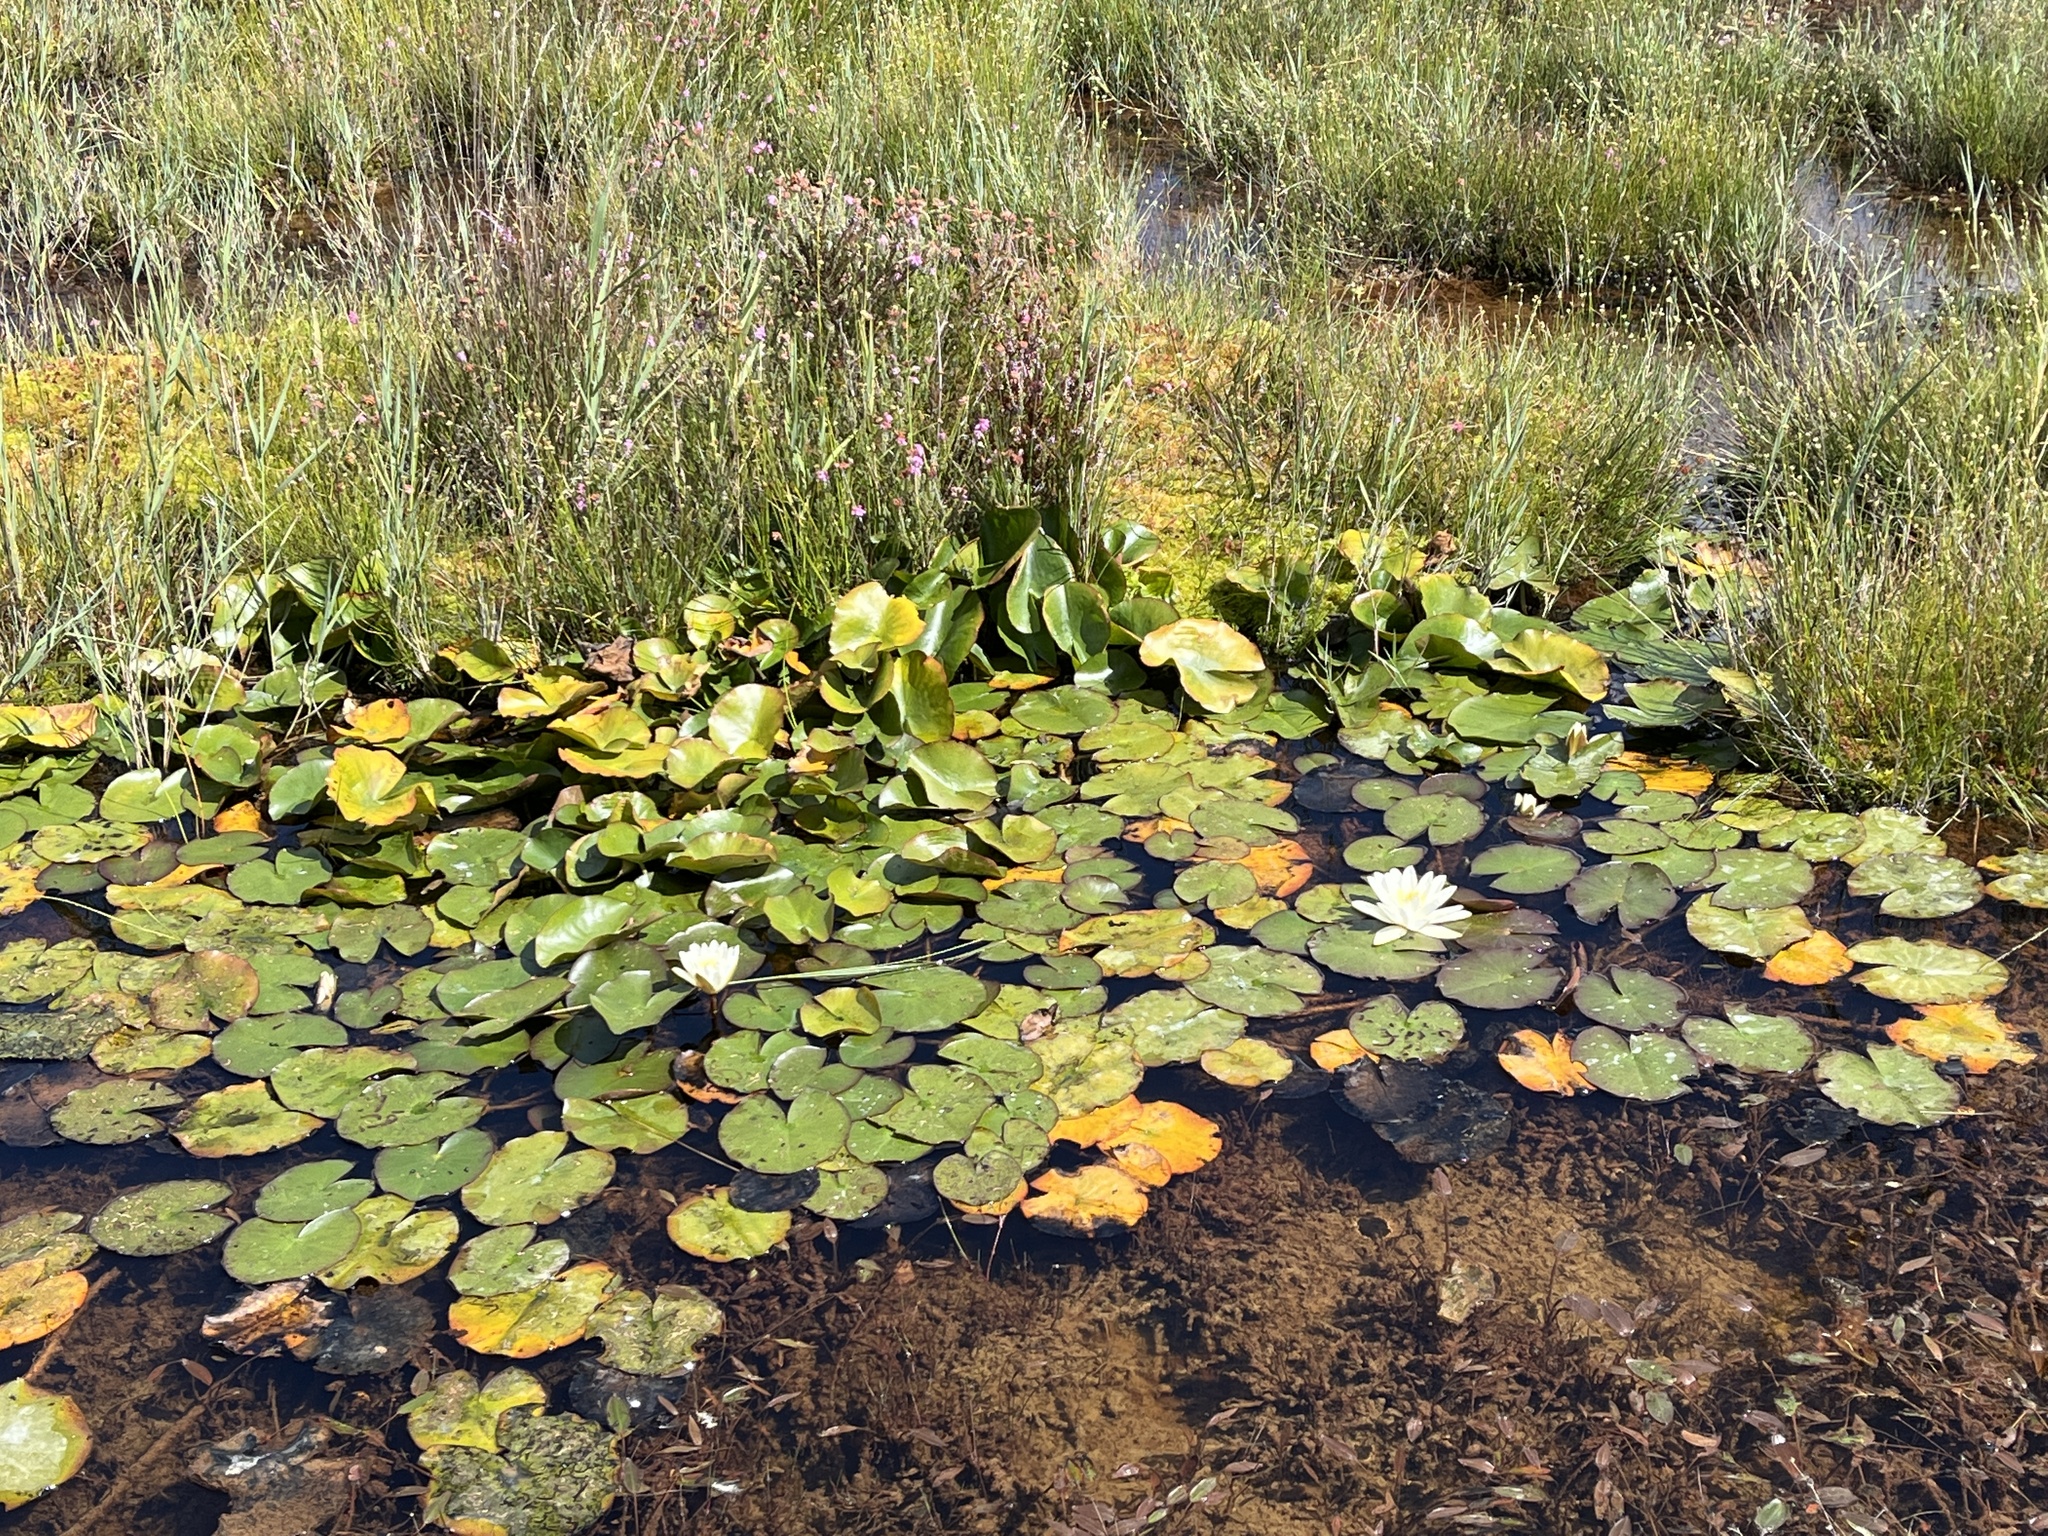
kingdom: Plantae
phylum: Tracheophyta
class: Magnoliopsida
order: Nymphaeales
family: Nymphaeaceae
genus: Nymphaea
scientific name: Nymphaea alba
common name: White water-lily
